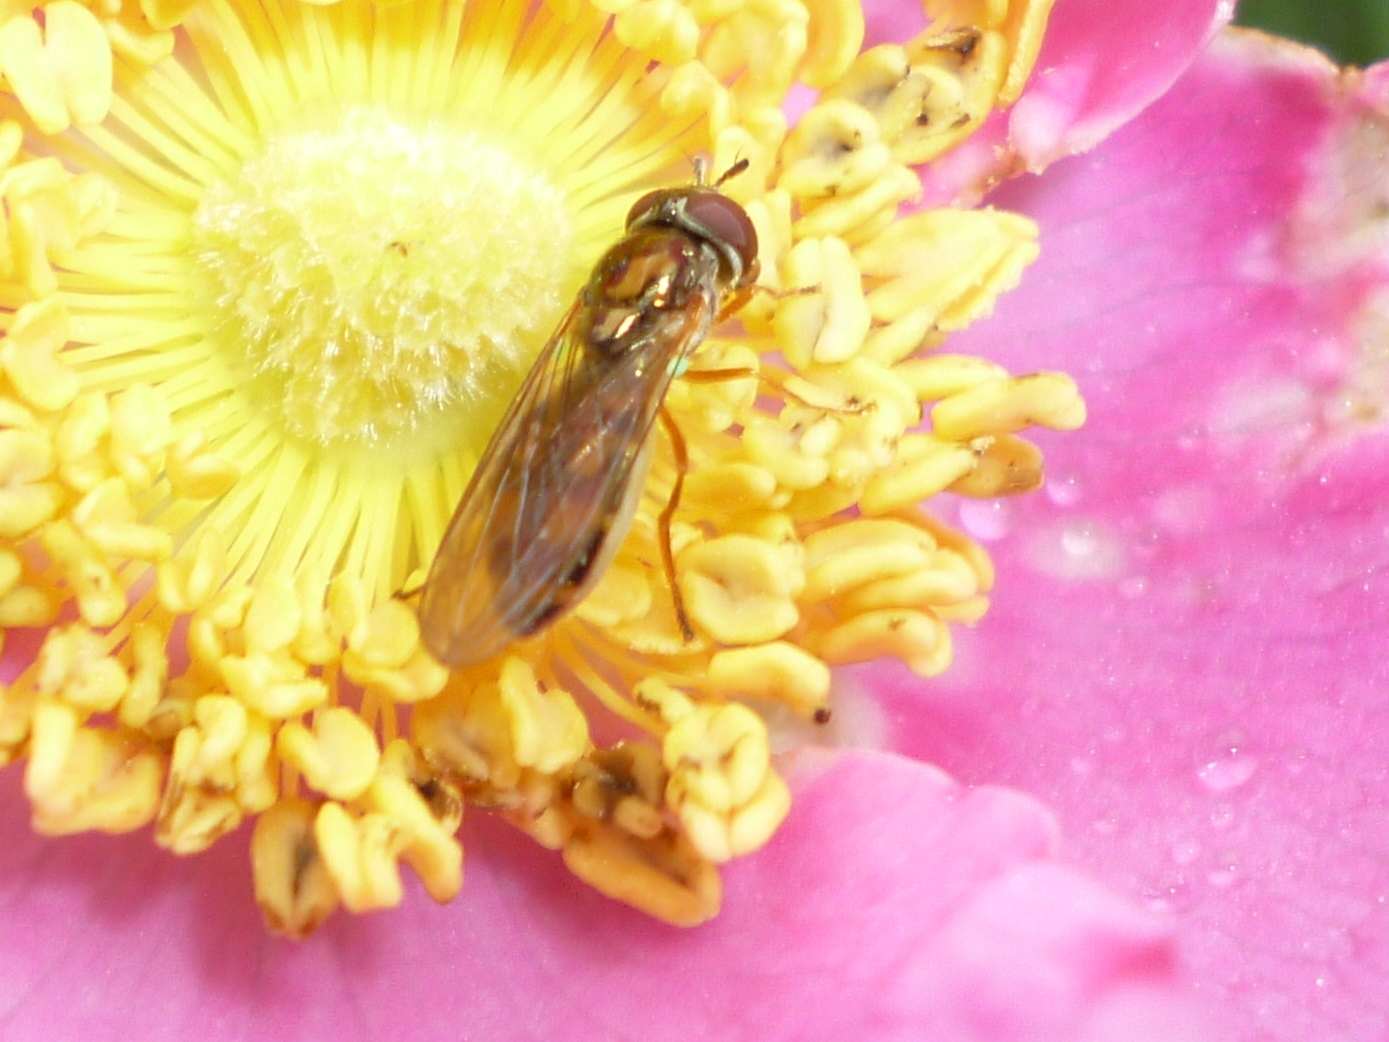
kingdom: Animalia
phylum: Arthropoda
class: Insecta
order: Diptera
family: Syrphidae
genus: Melanostoma
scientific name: Melanostoma mellina
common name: Hover fly
